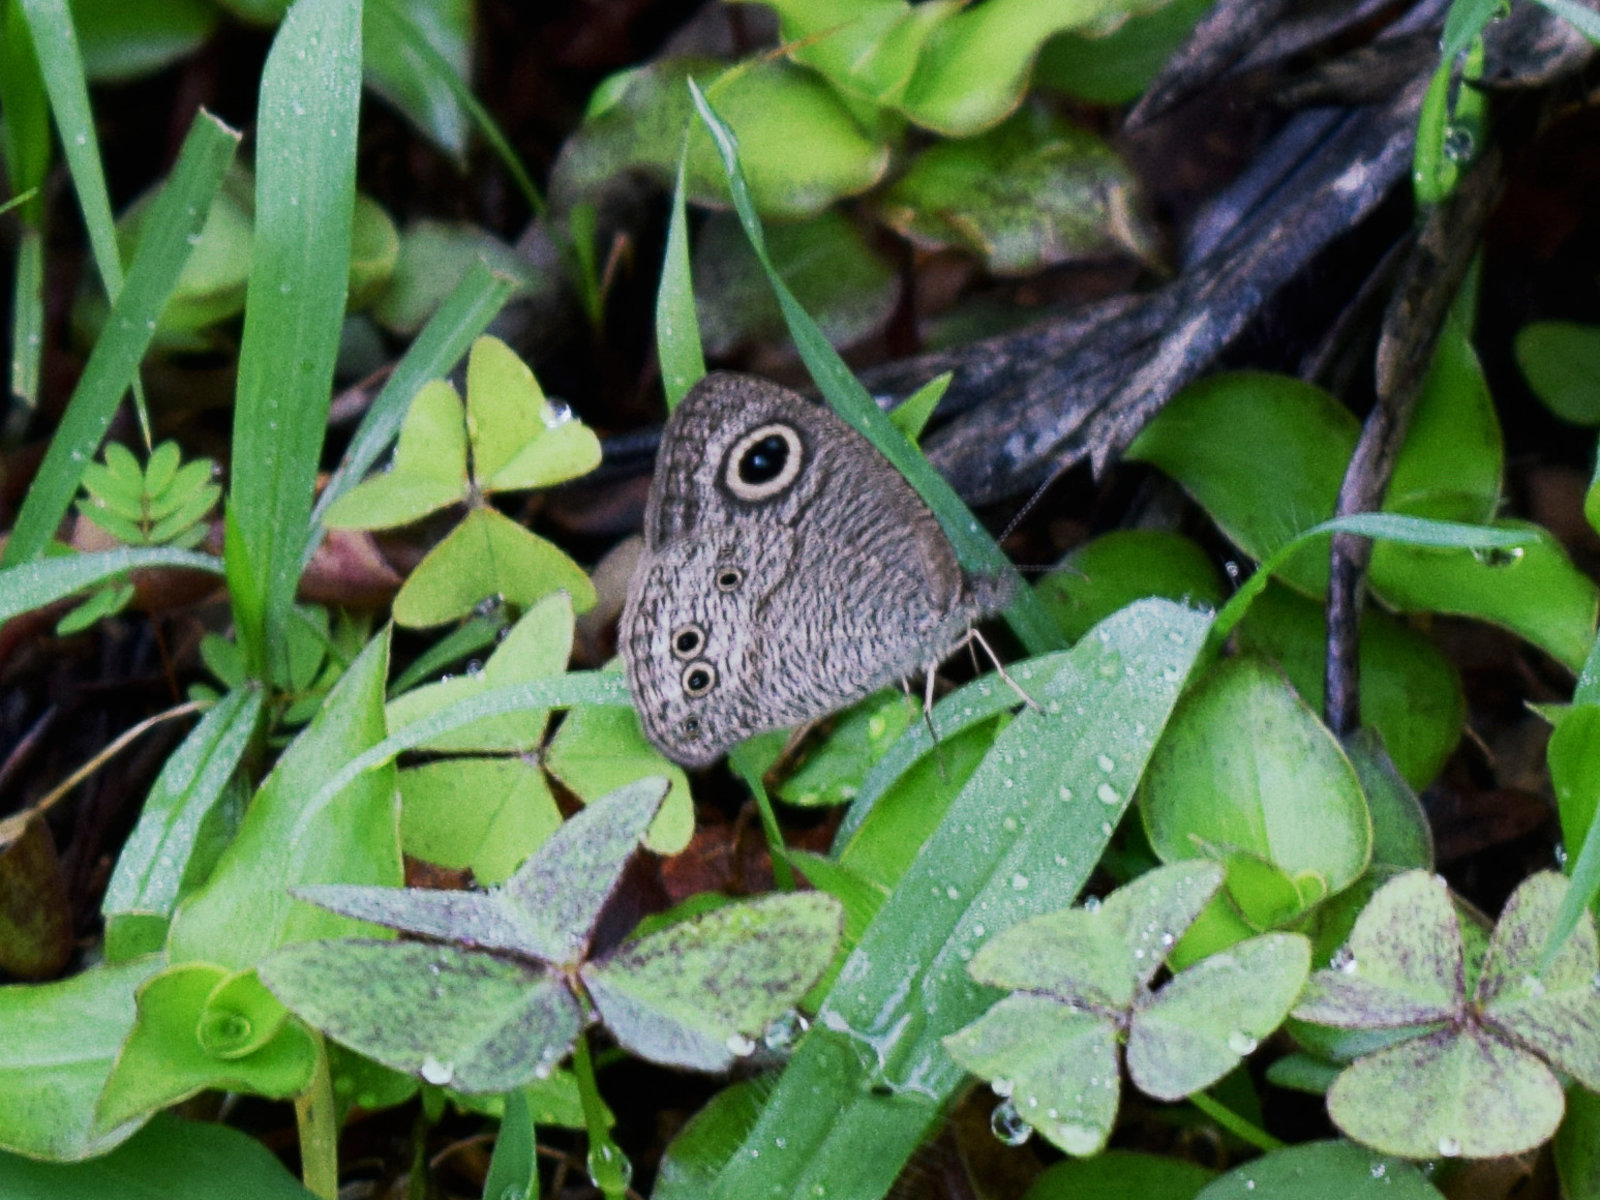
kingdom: Animalia
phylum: Arthropoda
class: Insecta
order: Lepidoptera
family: Nymphalidae
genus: Ypthima
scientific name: Ypthima baldus
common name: Common five-ring
